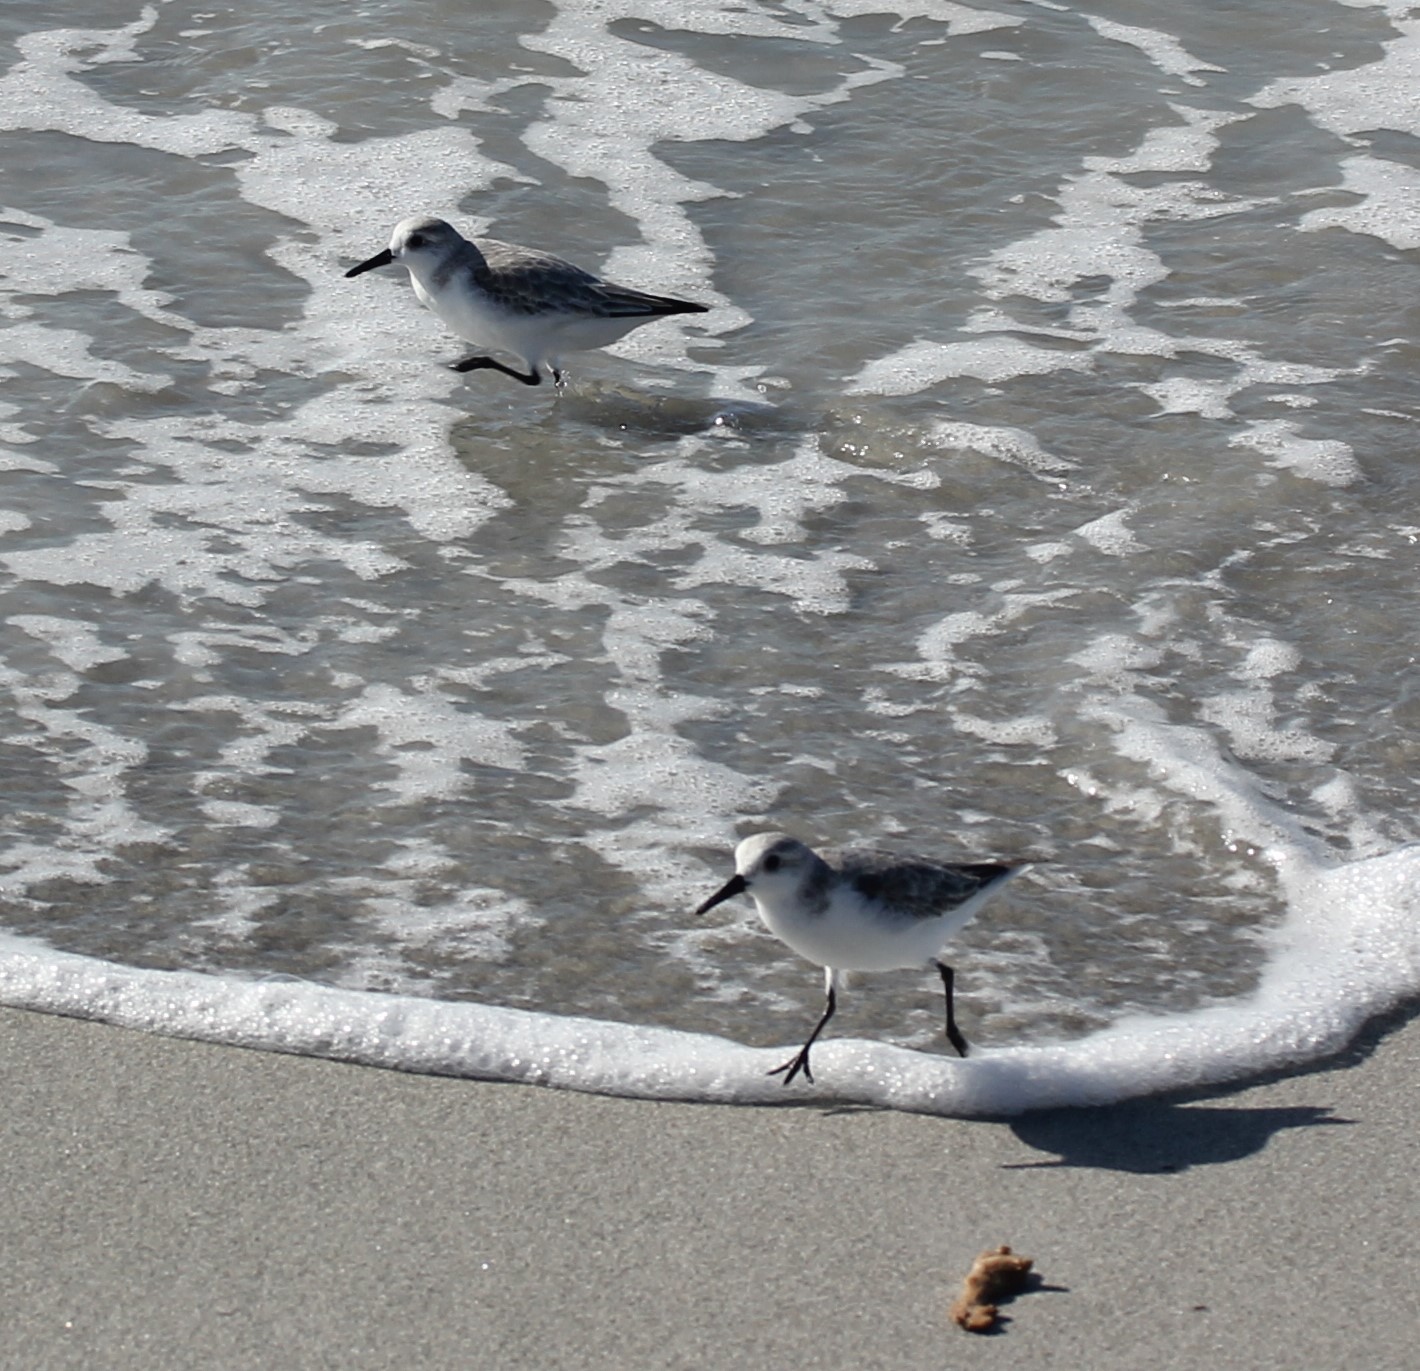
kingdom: Animalia
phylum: Chordata
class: Aves
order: Charadriiformes
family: Scolopacidae
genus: Calidris
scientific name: Calidris alba
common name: Sanderling
